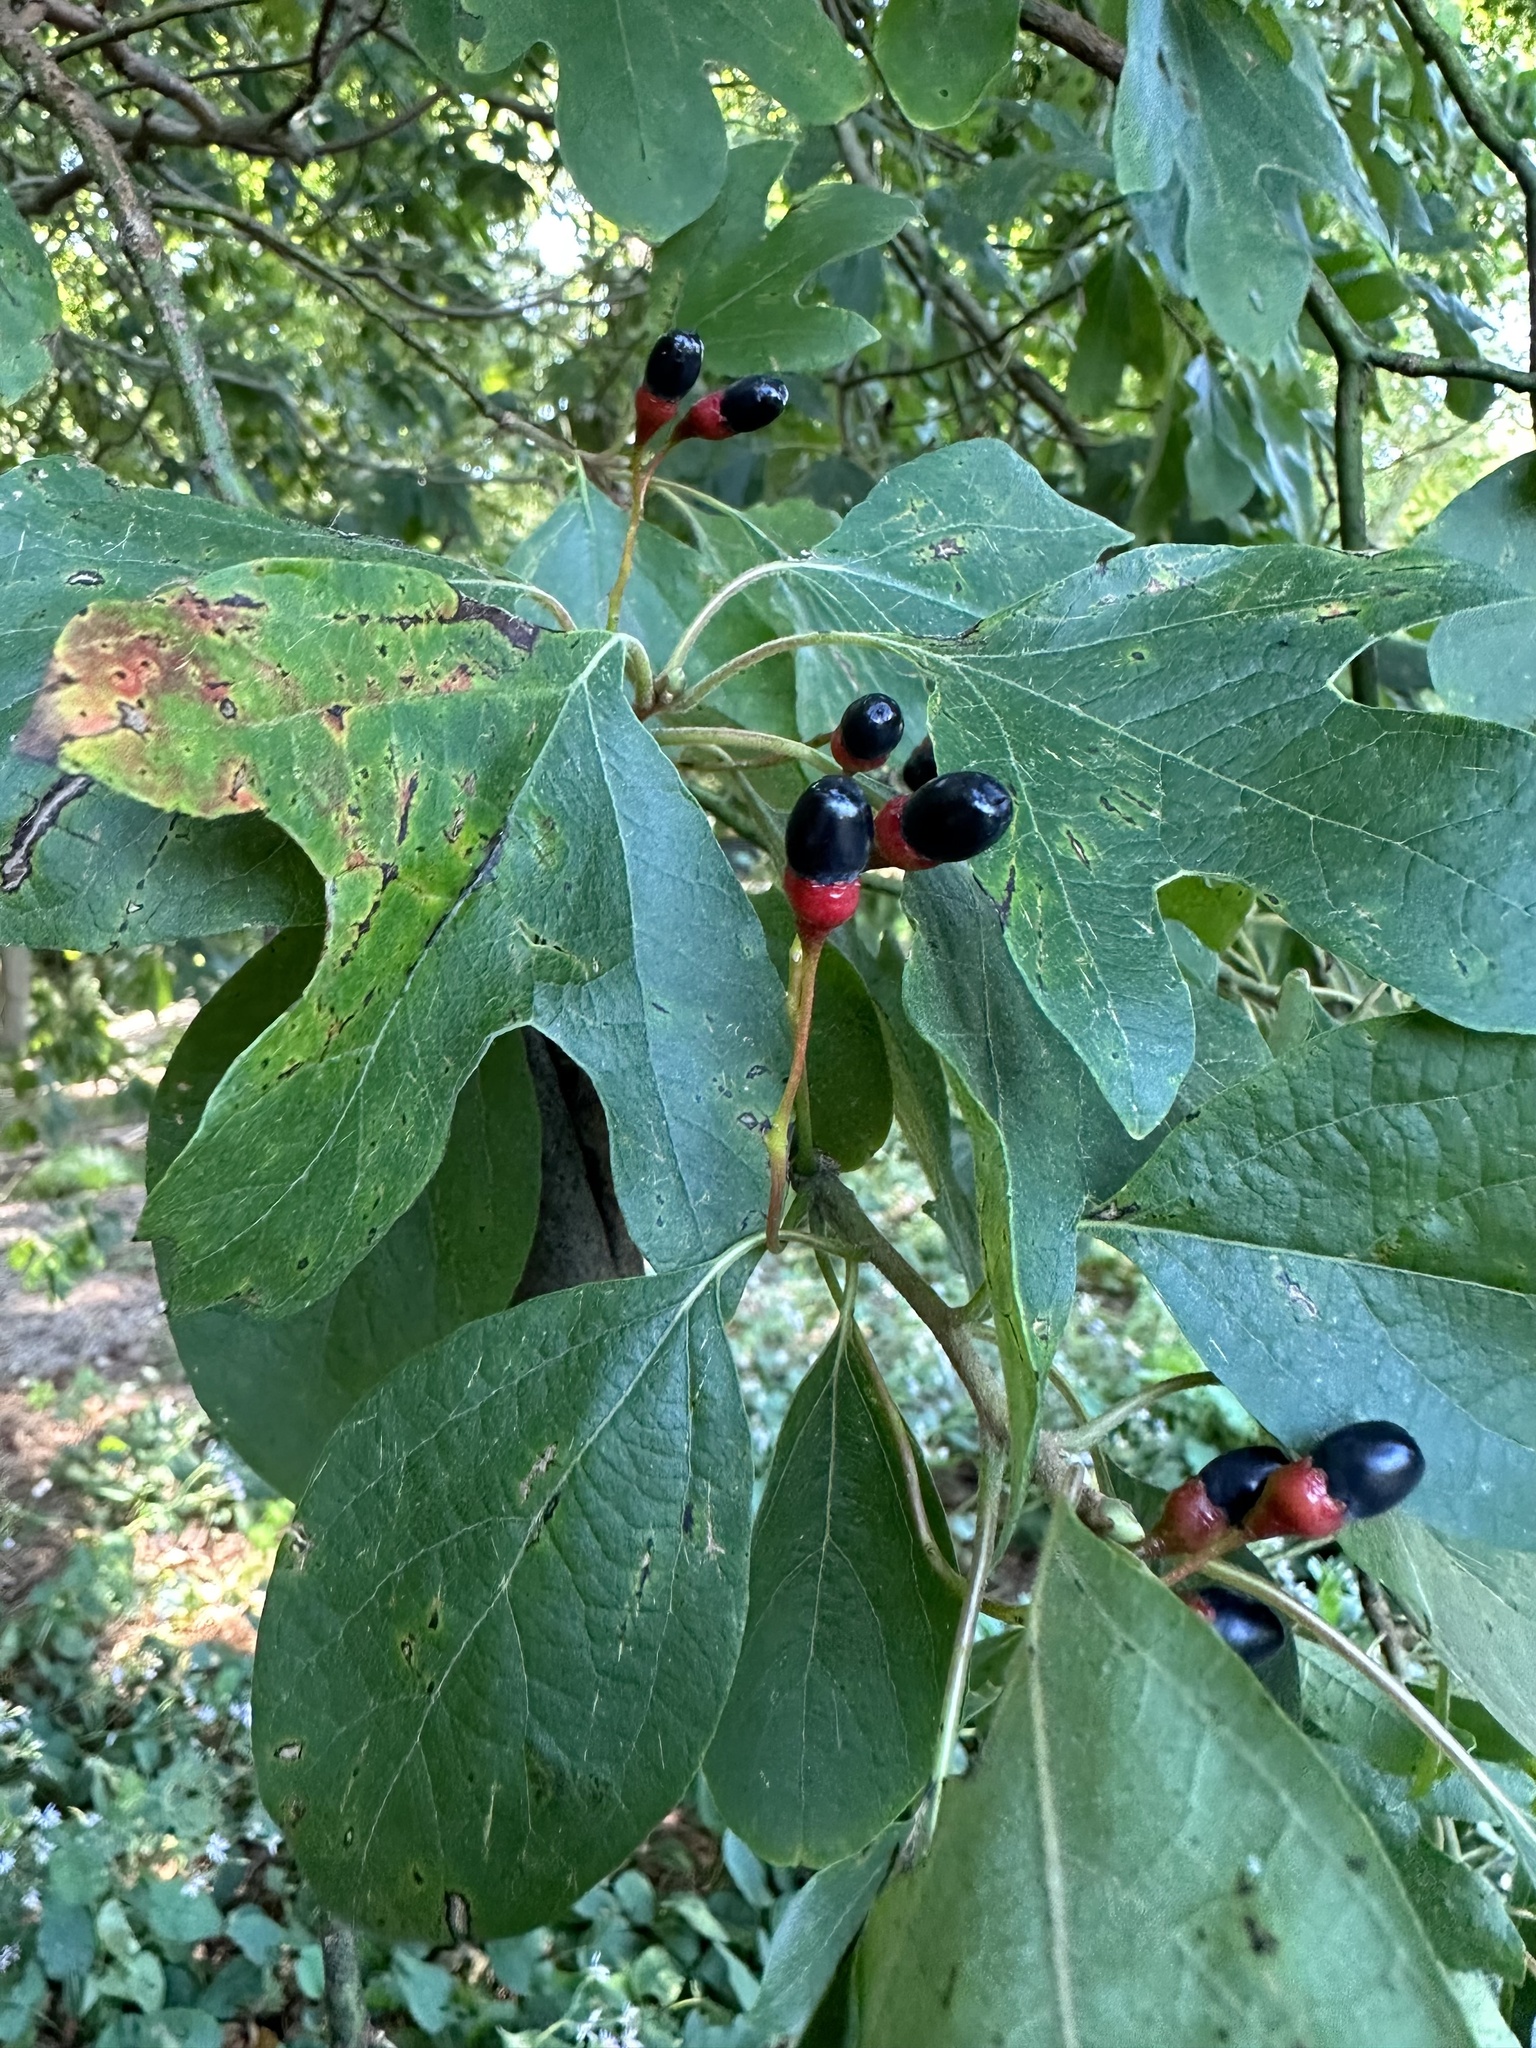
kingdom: Plantae
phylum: Tracheophyta
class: Magnoliopsida
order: Laurales
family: Lauraceae
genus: Sassafras
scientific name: Sassafras albidum
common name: Sassafras
